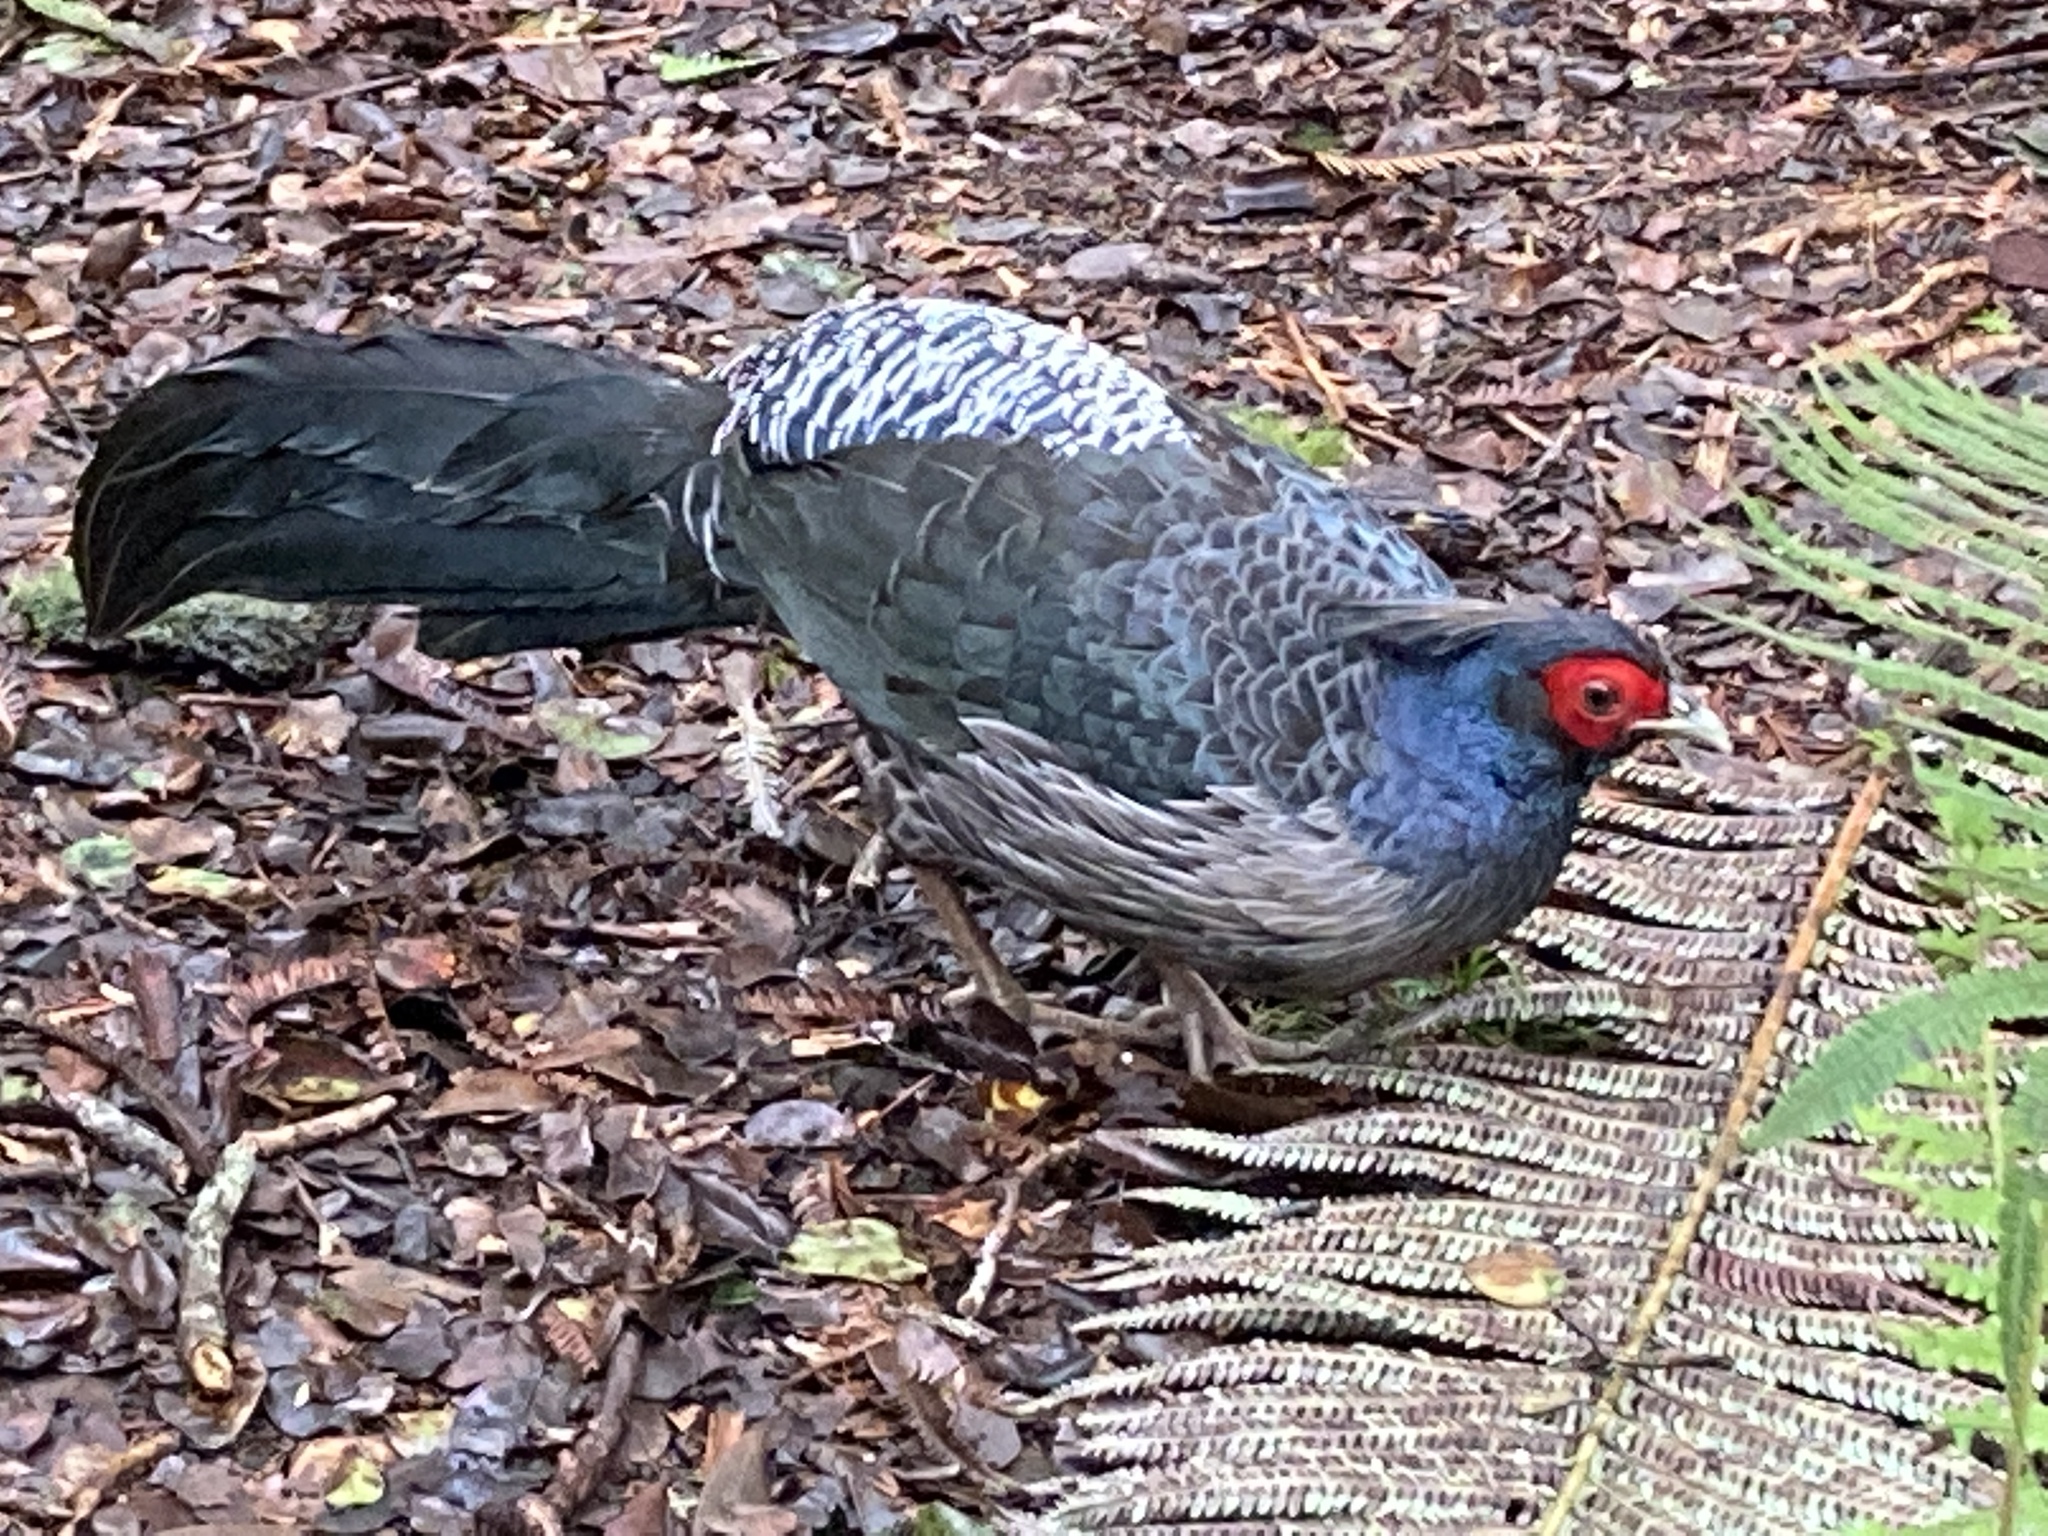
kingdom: Animalia
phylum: Chordata
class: Aves
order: Galliformes
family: Phasianidae
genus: Lophura
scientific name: Lophura leucomelanos
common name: Kalij pheasant
